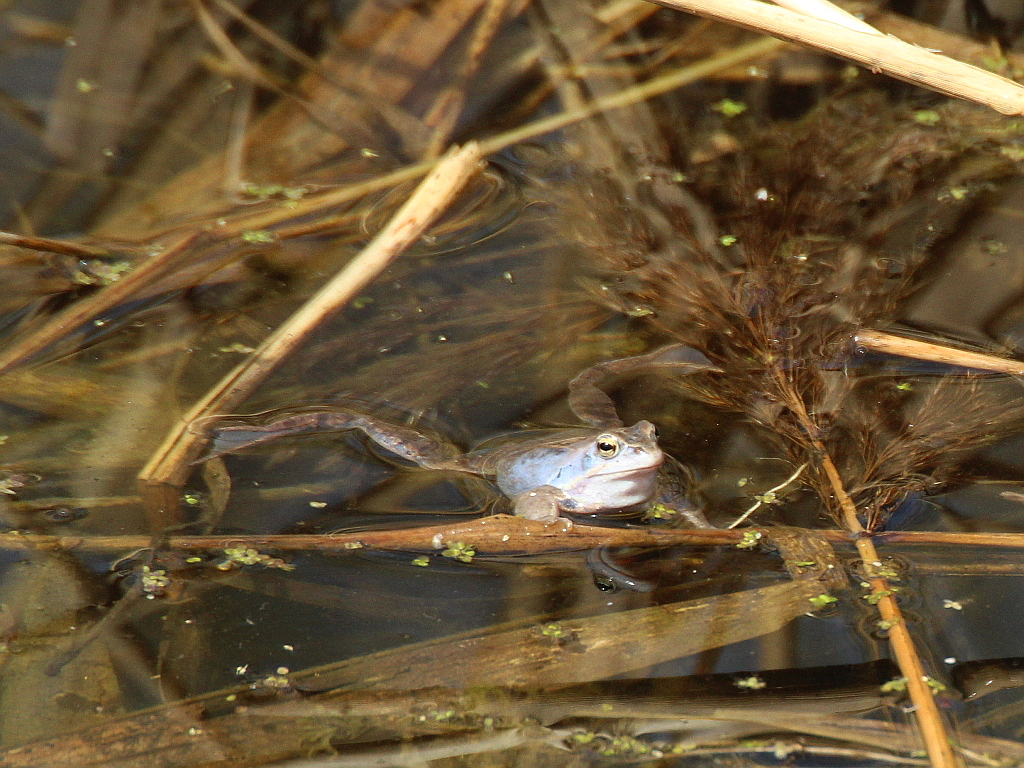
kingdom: Animalia
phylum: Chordata
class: Amphibia
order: Anura
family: Ranidae
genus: Rana
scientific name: Rana arvalis
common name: Moor frog
